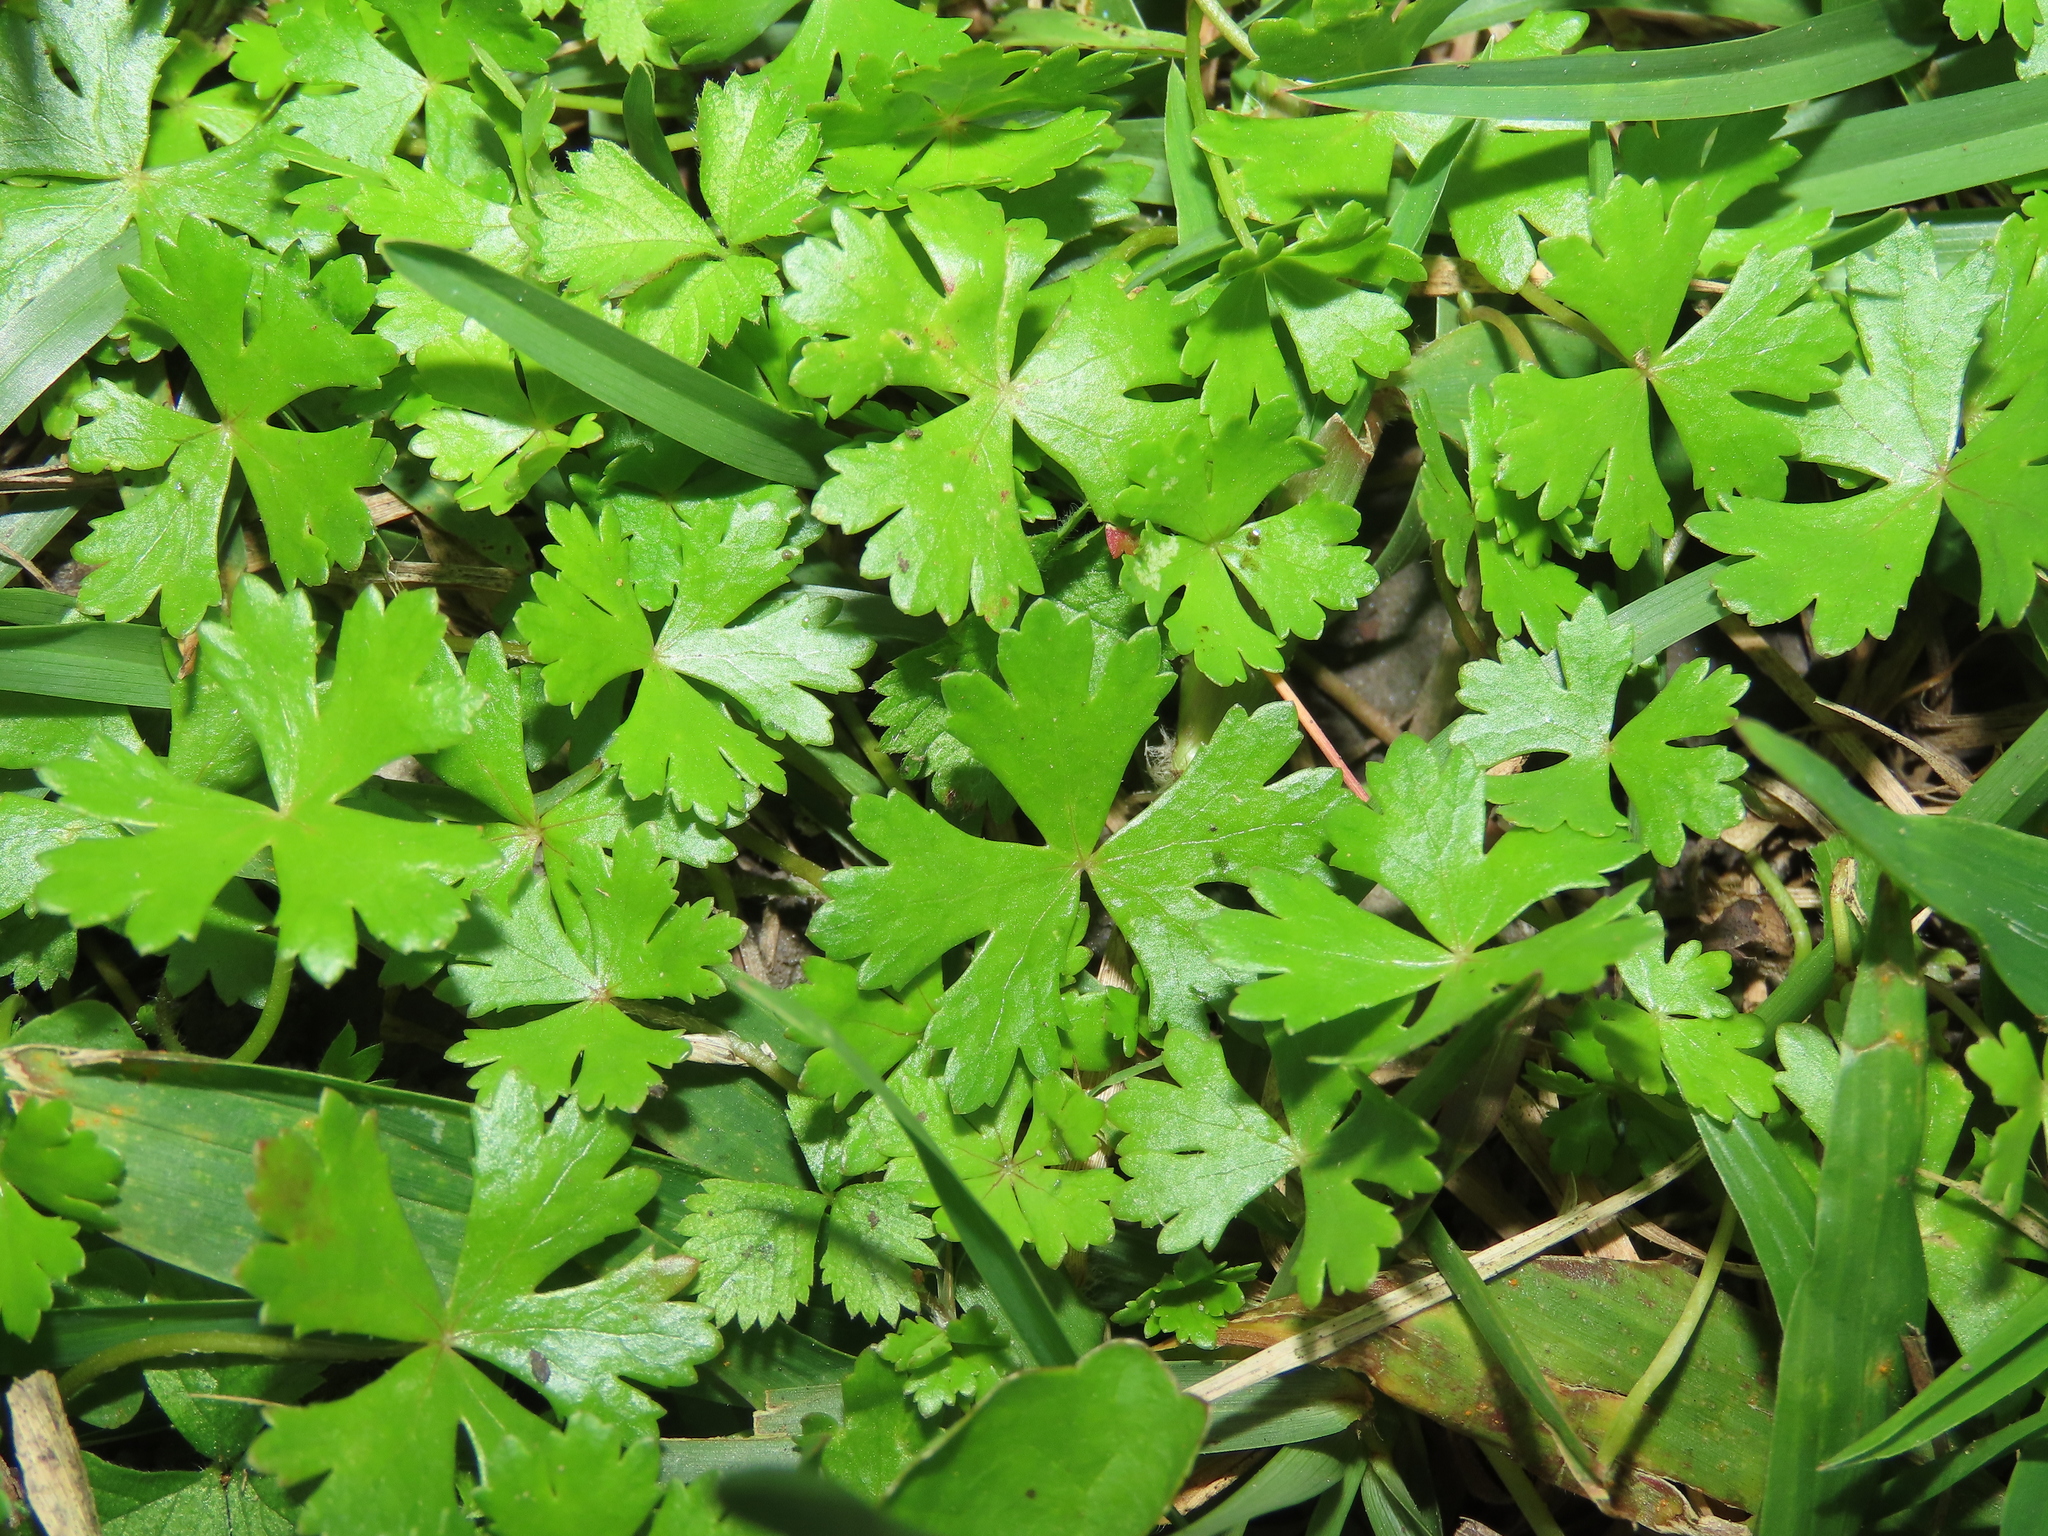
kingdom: Plantae
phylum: Tracheophyta
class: Magnoliopsida
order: Apiales
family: Araliaceae
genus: Hydrocotyle
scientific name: Hydrocotyle batrachium
